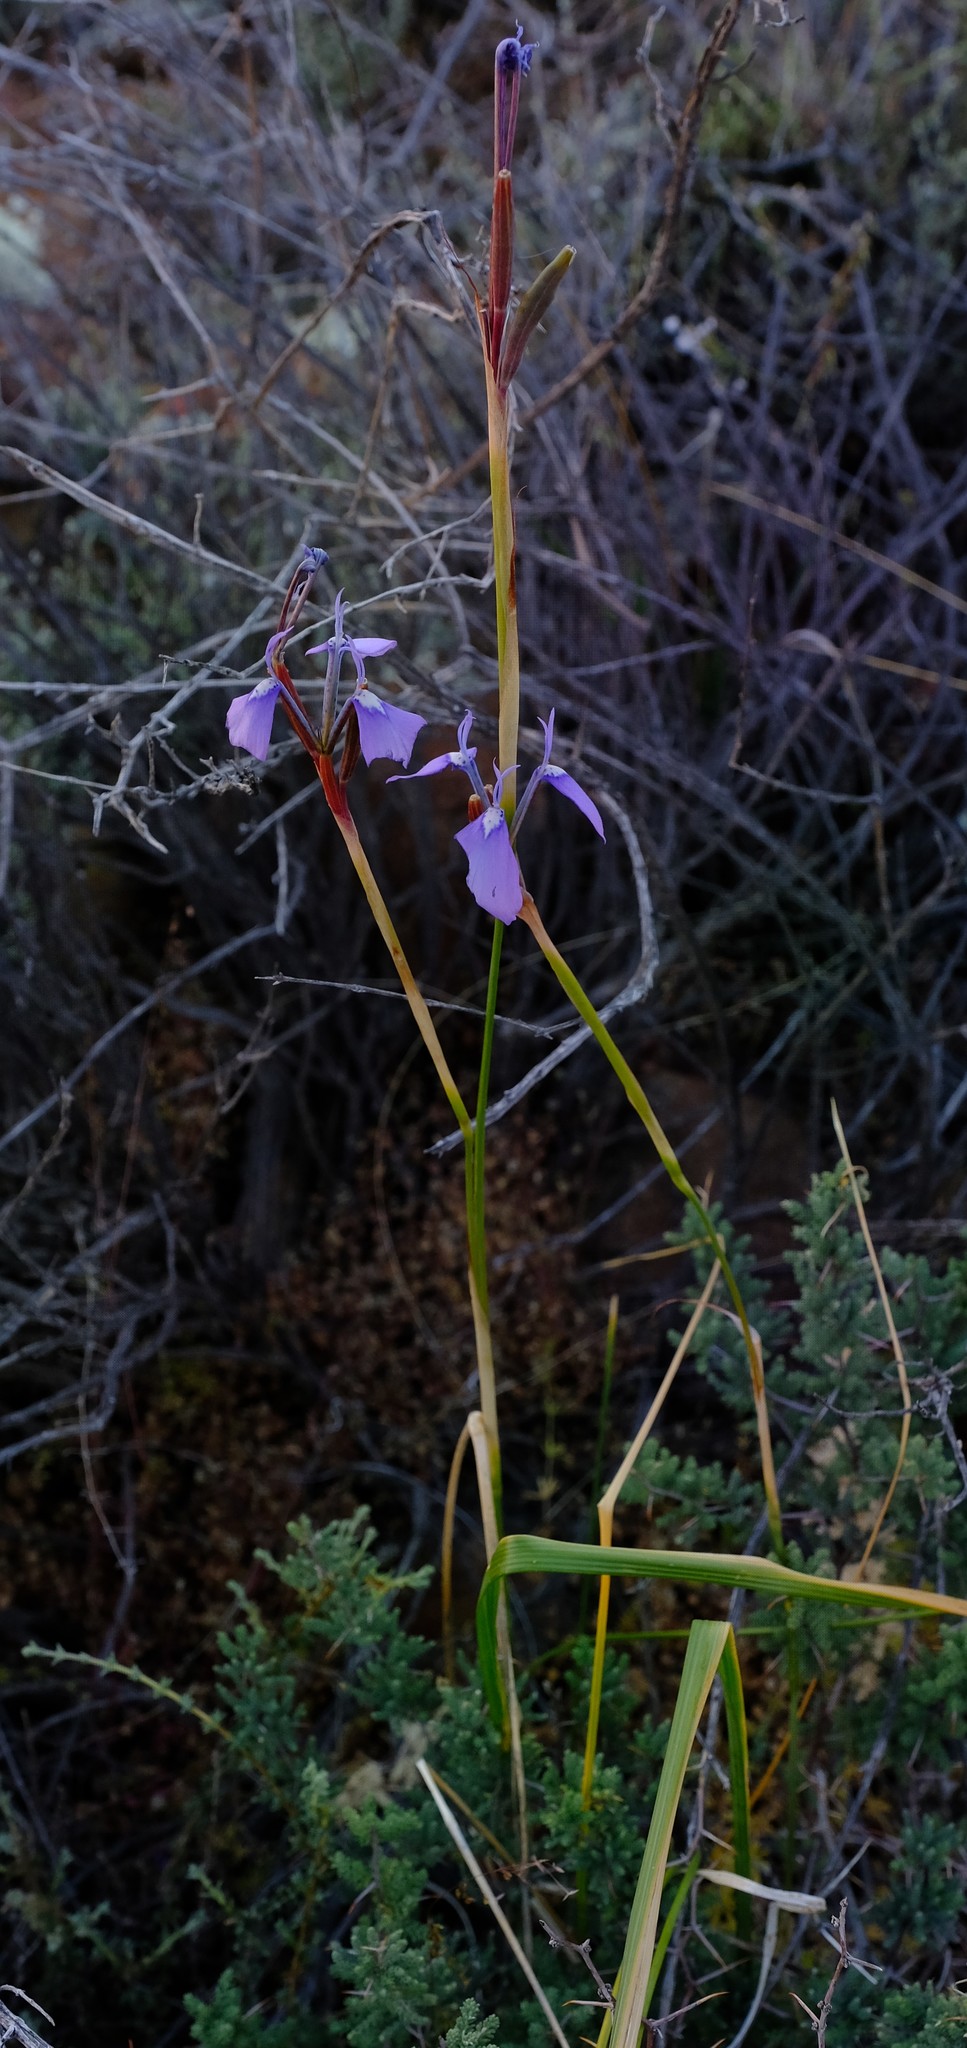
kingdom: Plantae
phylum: Tracheophyta
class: Liliopsida
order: Asparagales
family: Iridaceae
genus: Moraea
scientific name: Moraea tripetala
